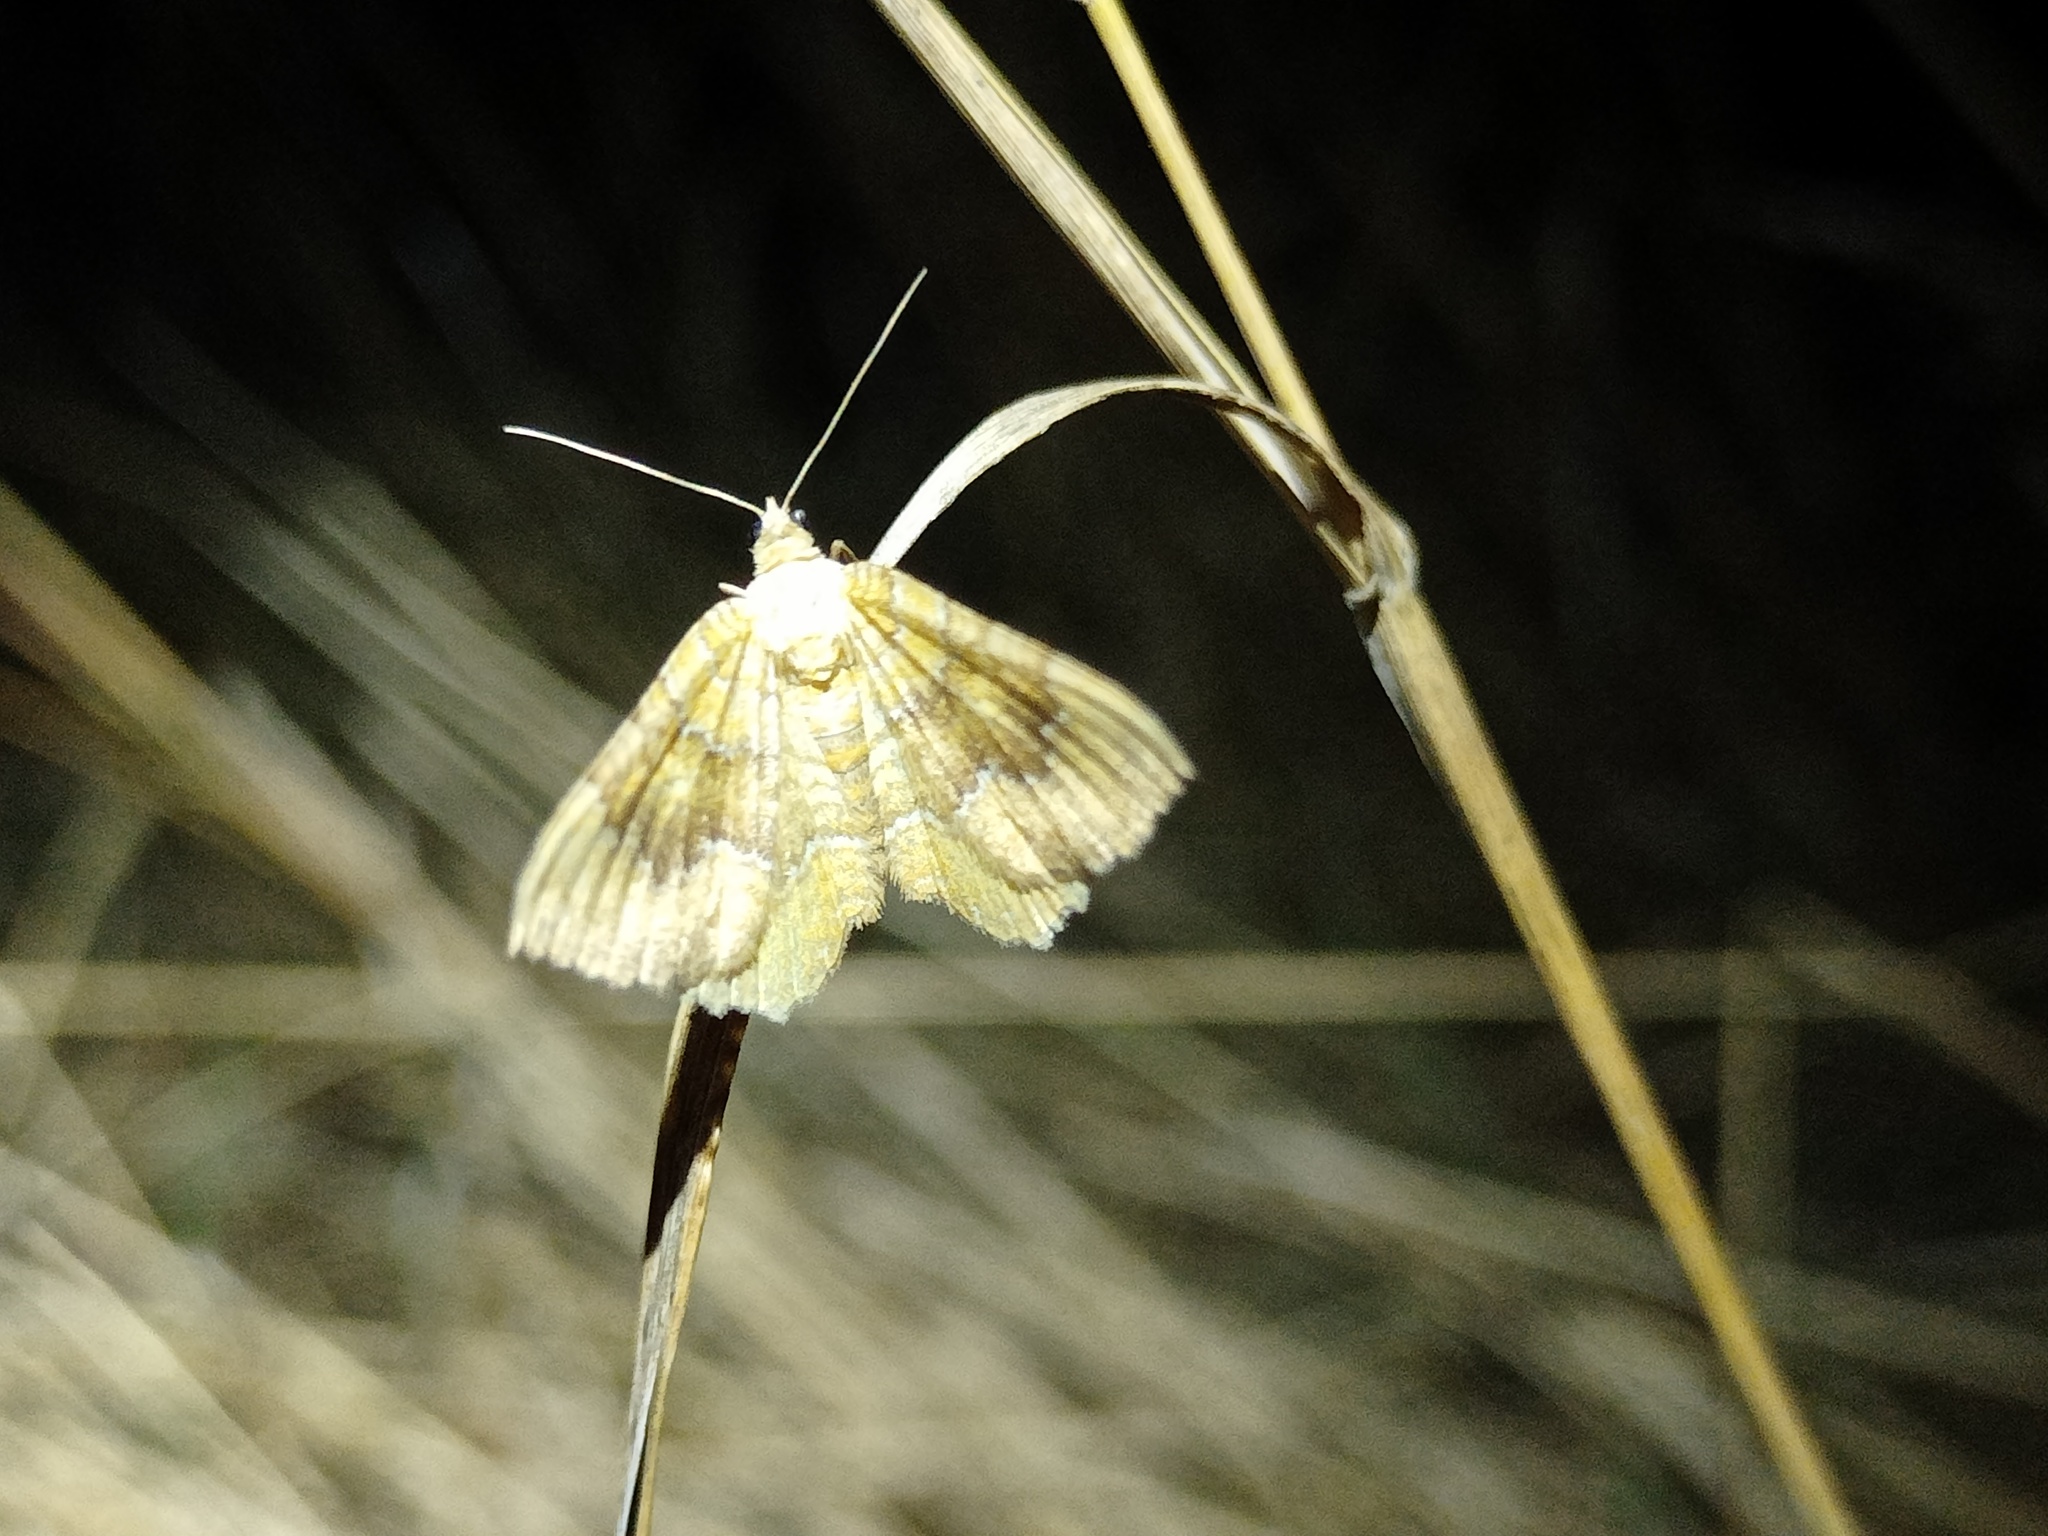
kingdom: Animalia
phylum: Arthropoda
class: Insecta
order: Lepidoptera
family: Geometridae
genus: Camptogramma
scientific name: Camptogramma bilineata
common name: Yellow shell
